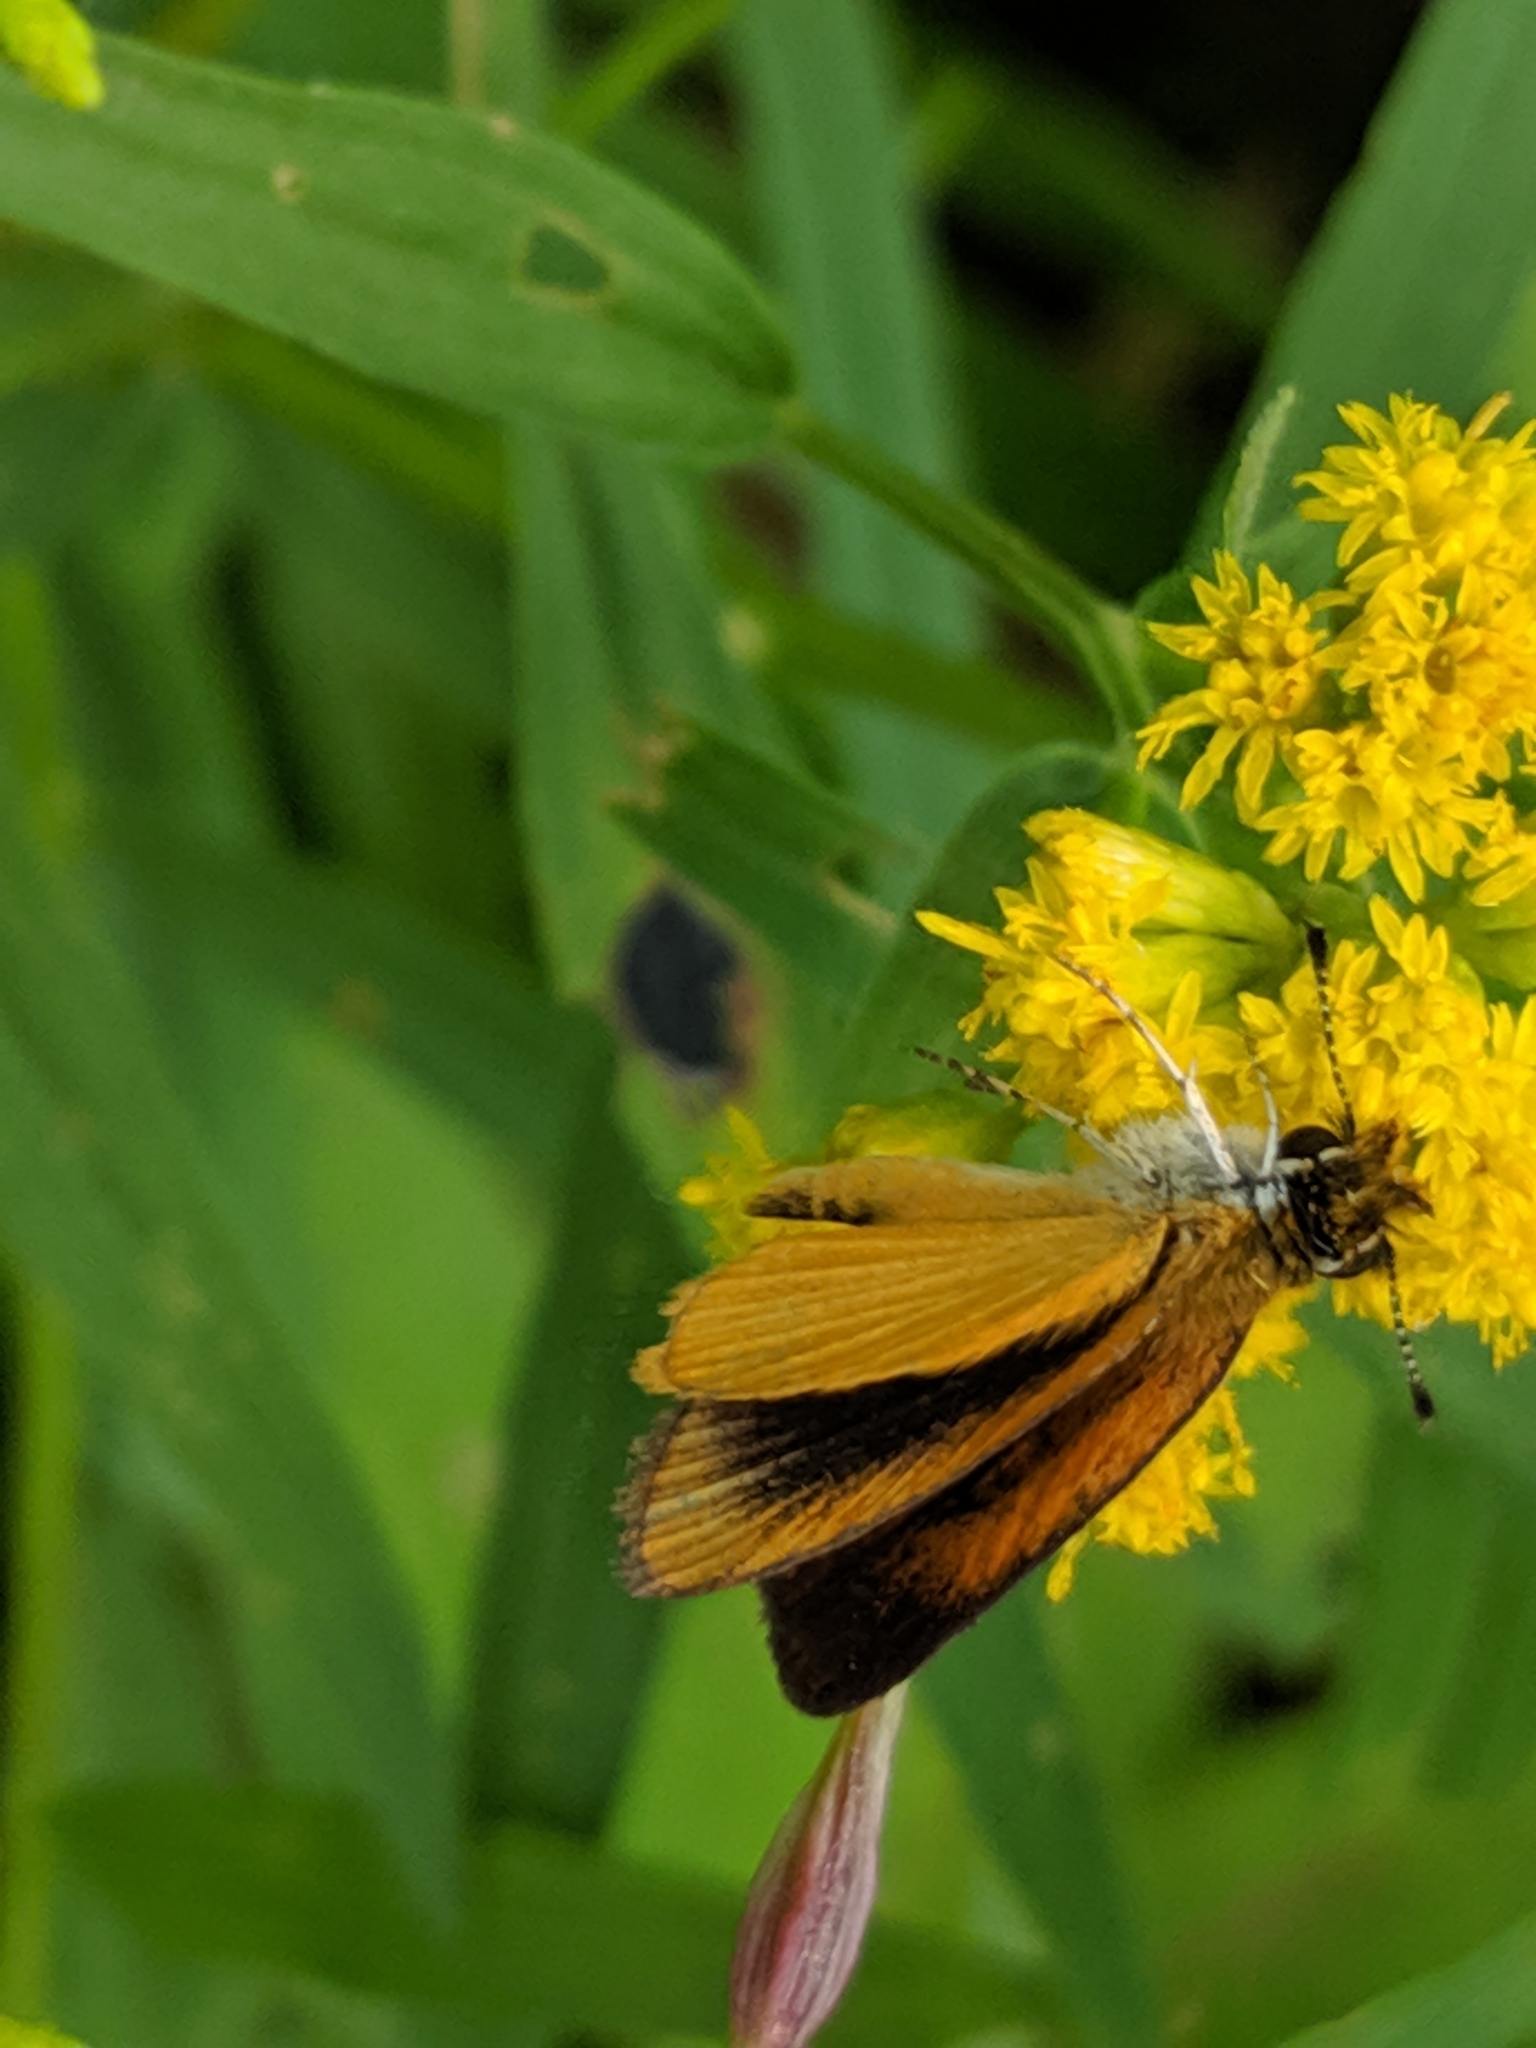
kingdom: Animalia
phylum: Arthropoda
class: Insecta
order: Lepidoptera
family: Hesperiidae
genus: Ancyloxypha
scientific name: Ancyloxypha numitor
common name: Least skipper
